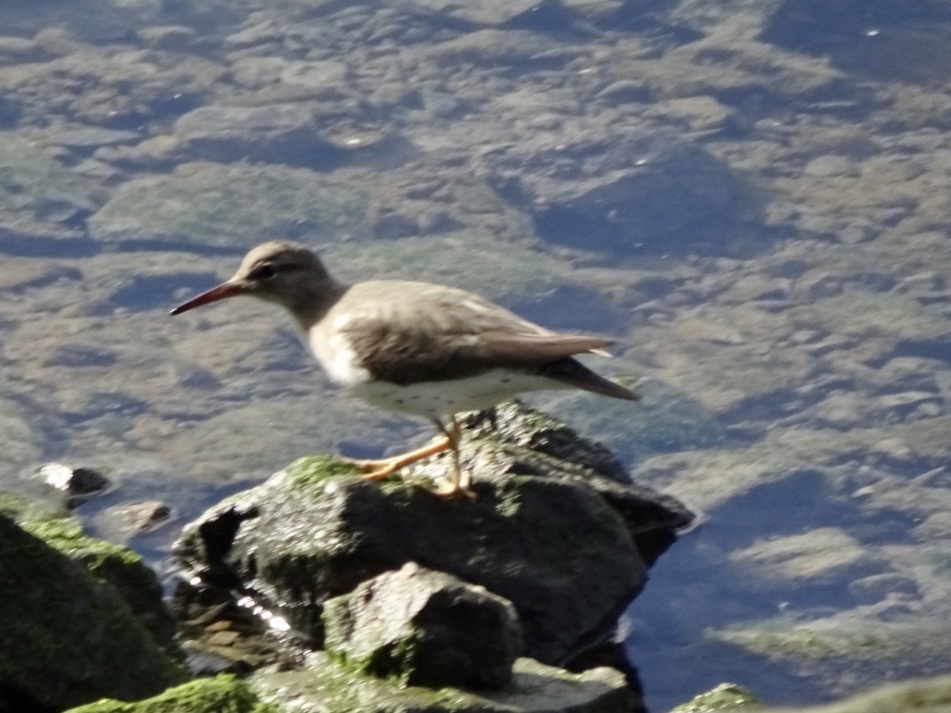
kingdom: Animalia
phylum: Chordata
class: Aves
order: Charadriiformes
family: Scolopacidae
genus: Actitis
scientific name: Actitis macularius
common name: Spotted sandpiper
